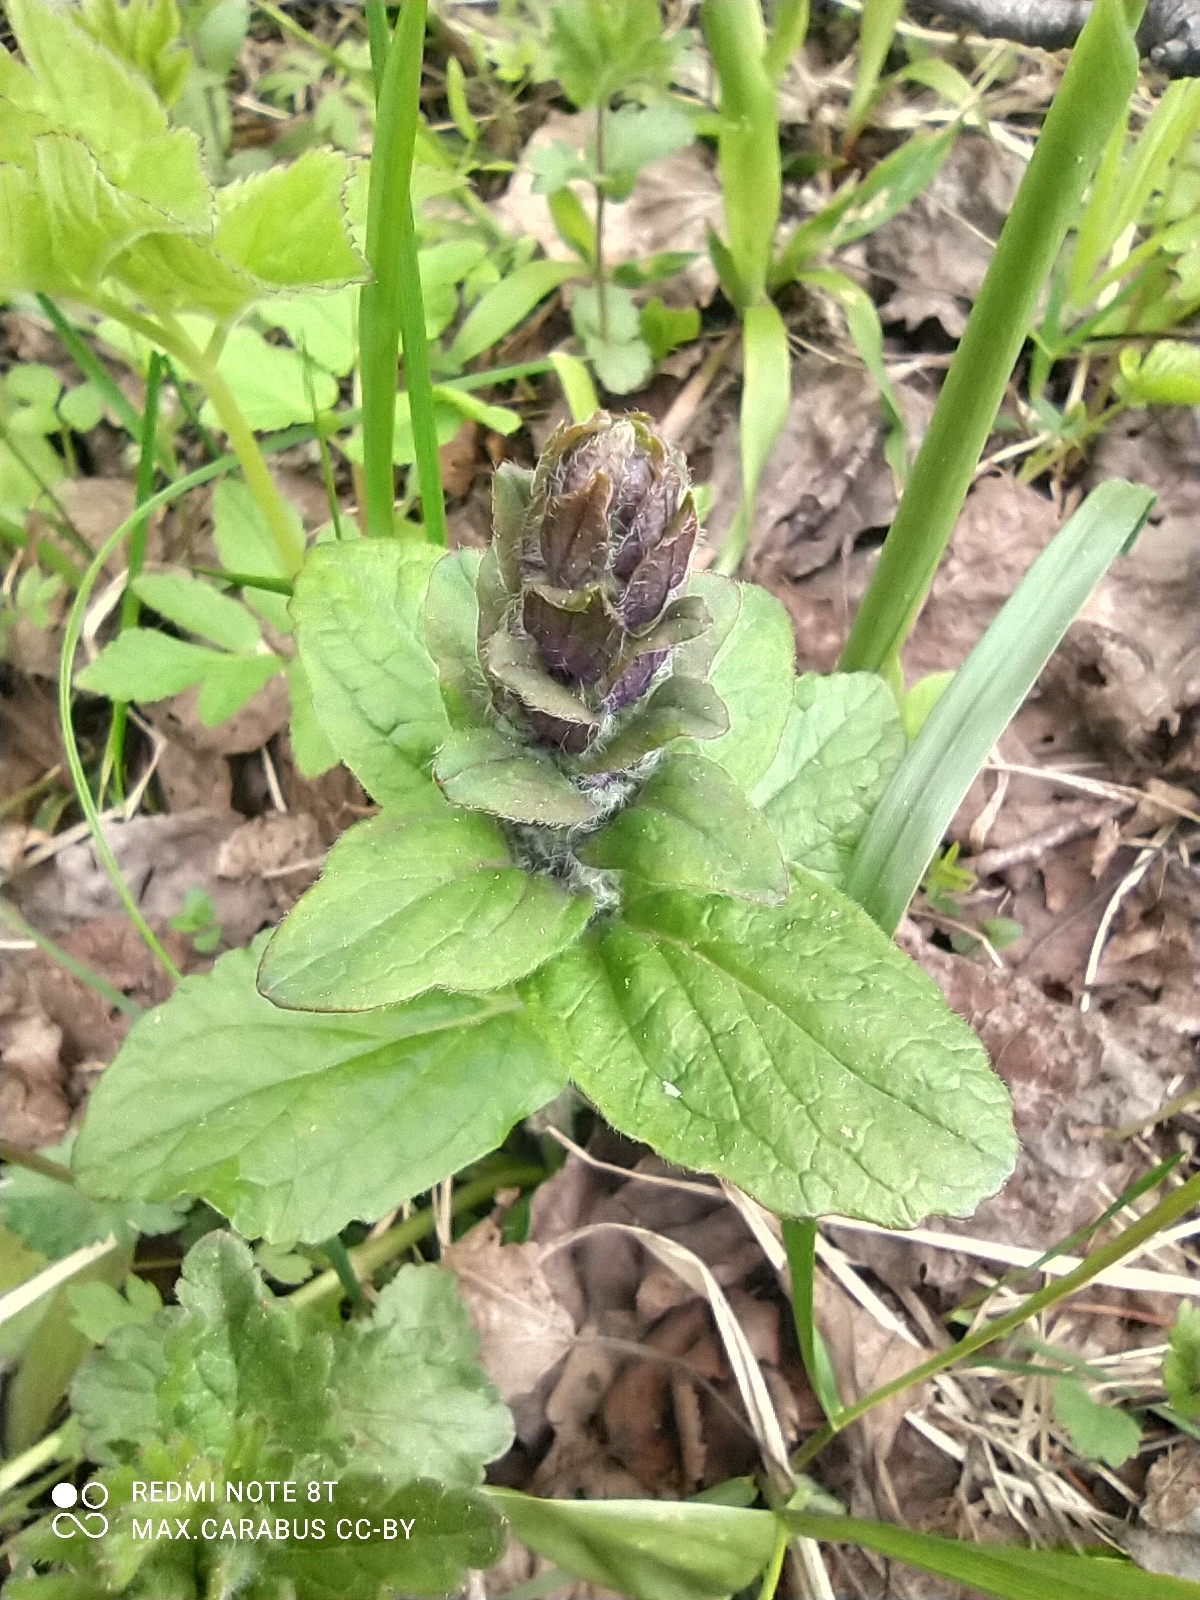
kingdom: Plantae
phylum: Tracheophyta
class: Magnoliopsida
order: Lamiales
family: Lamiaceae
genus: Ajuga
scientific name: Ajuga reptans
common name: Bugle
